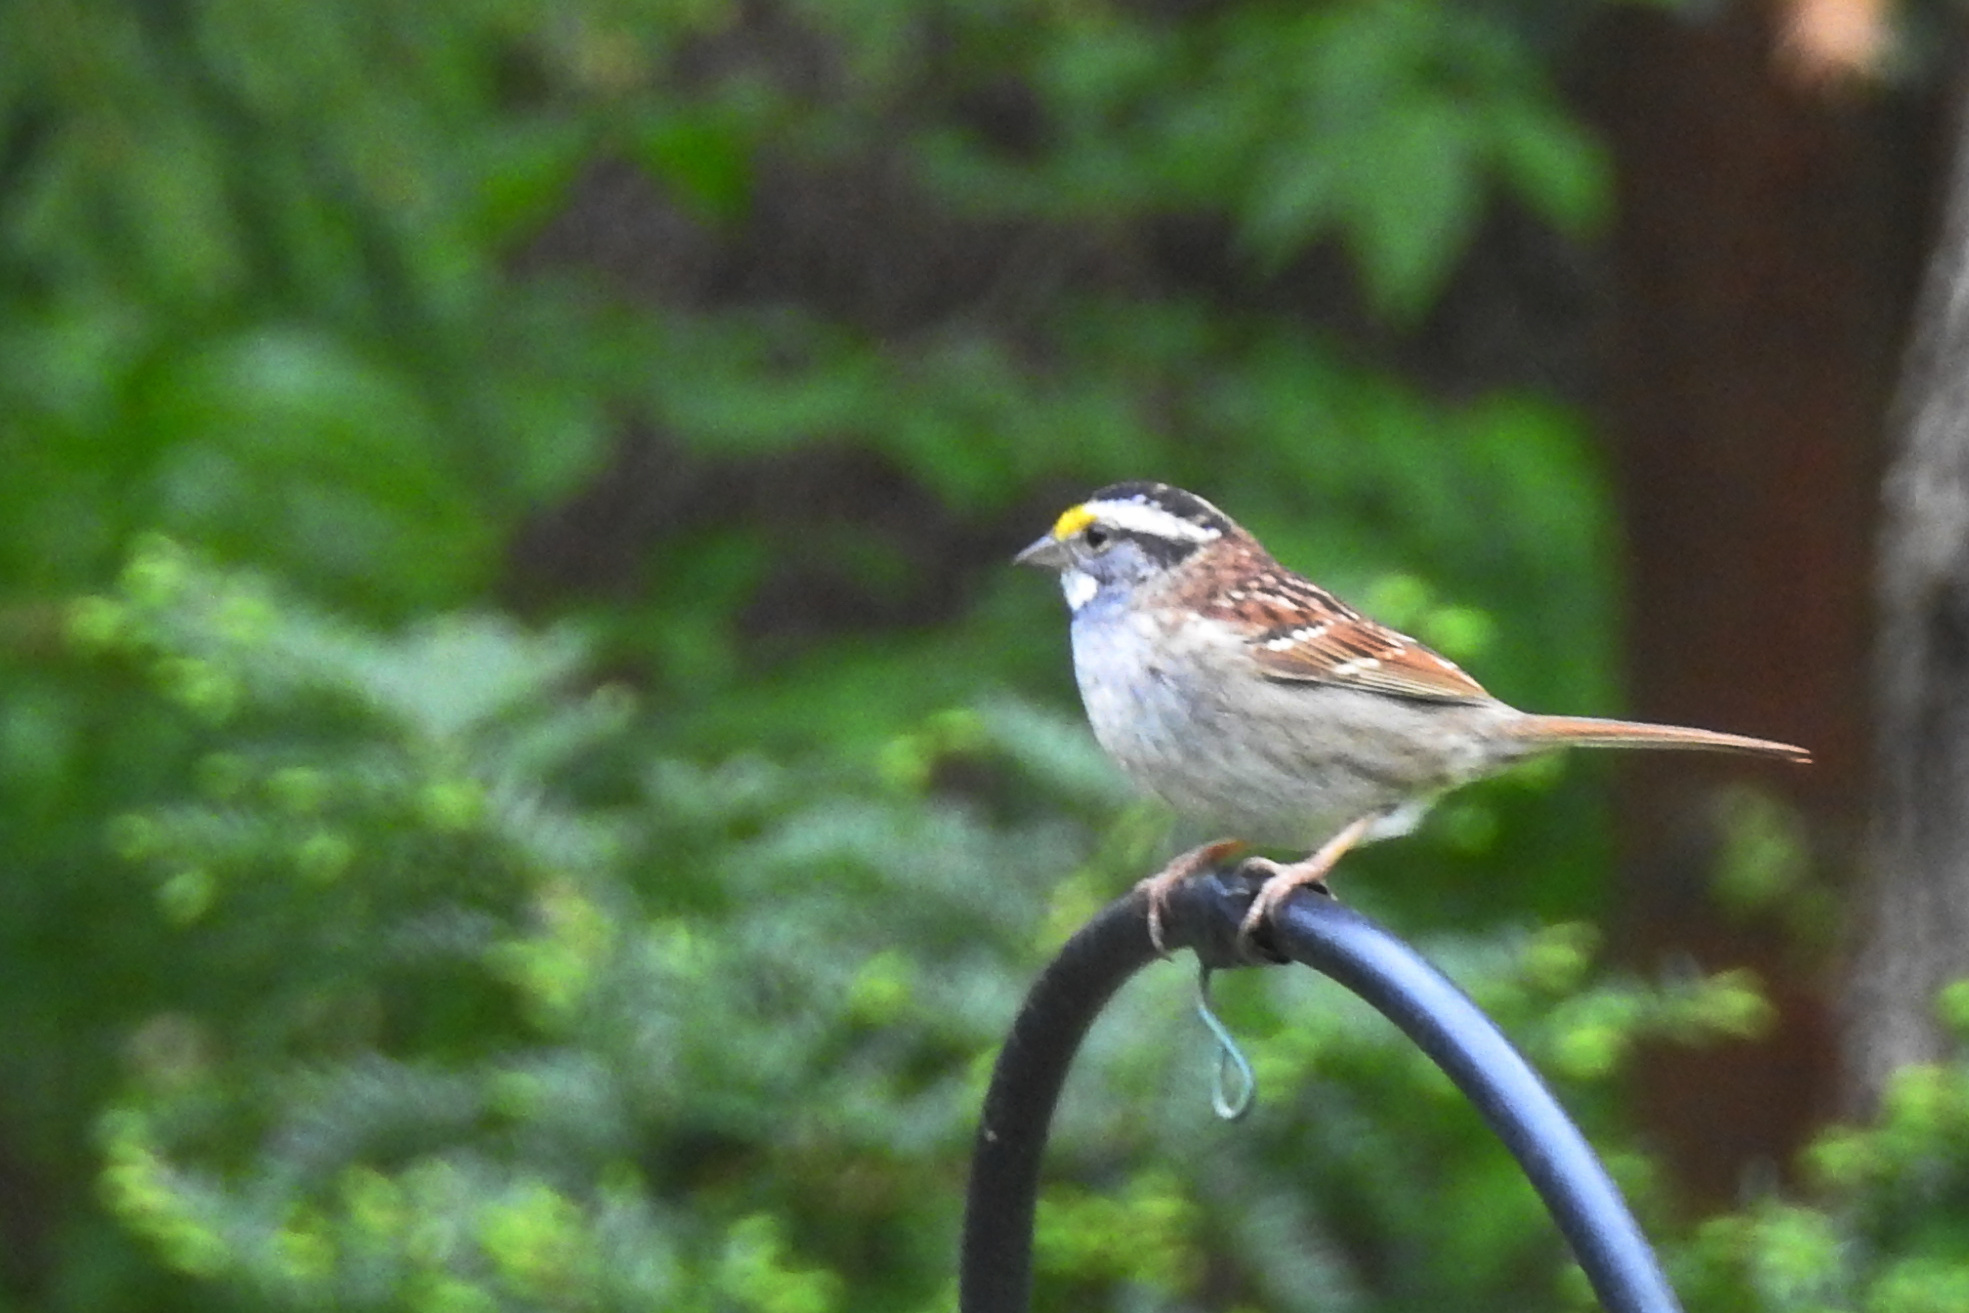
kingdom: Animalia
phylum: Chordata
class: Aves
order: Passeriformes
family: Passerellidae
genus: Zonotrichia
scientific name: Zonotrichia albicollis
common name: White-throated sparrow
